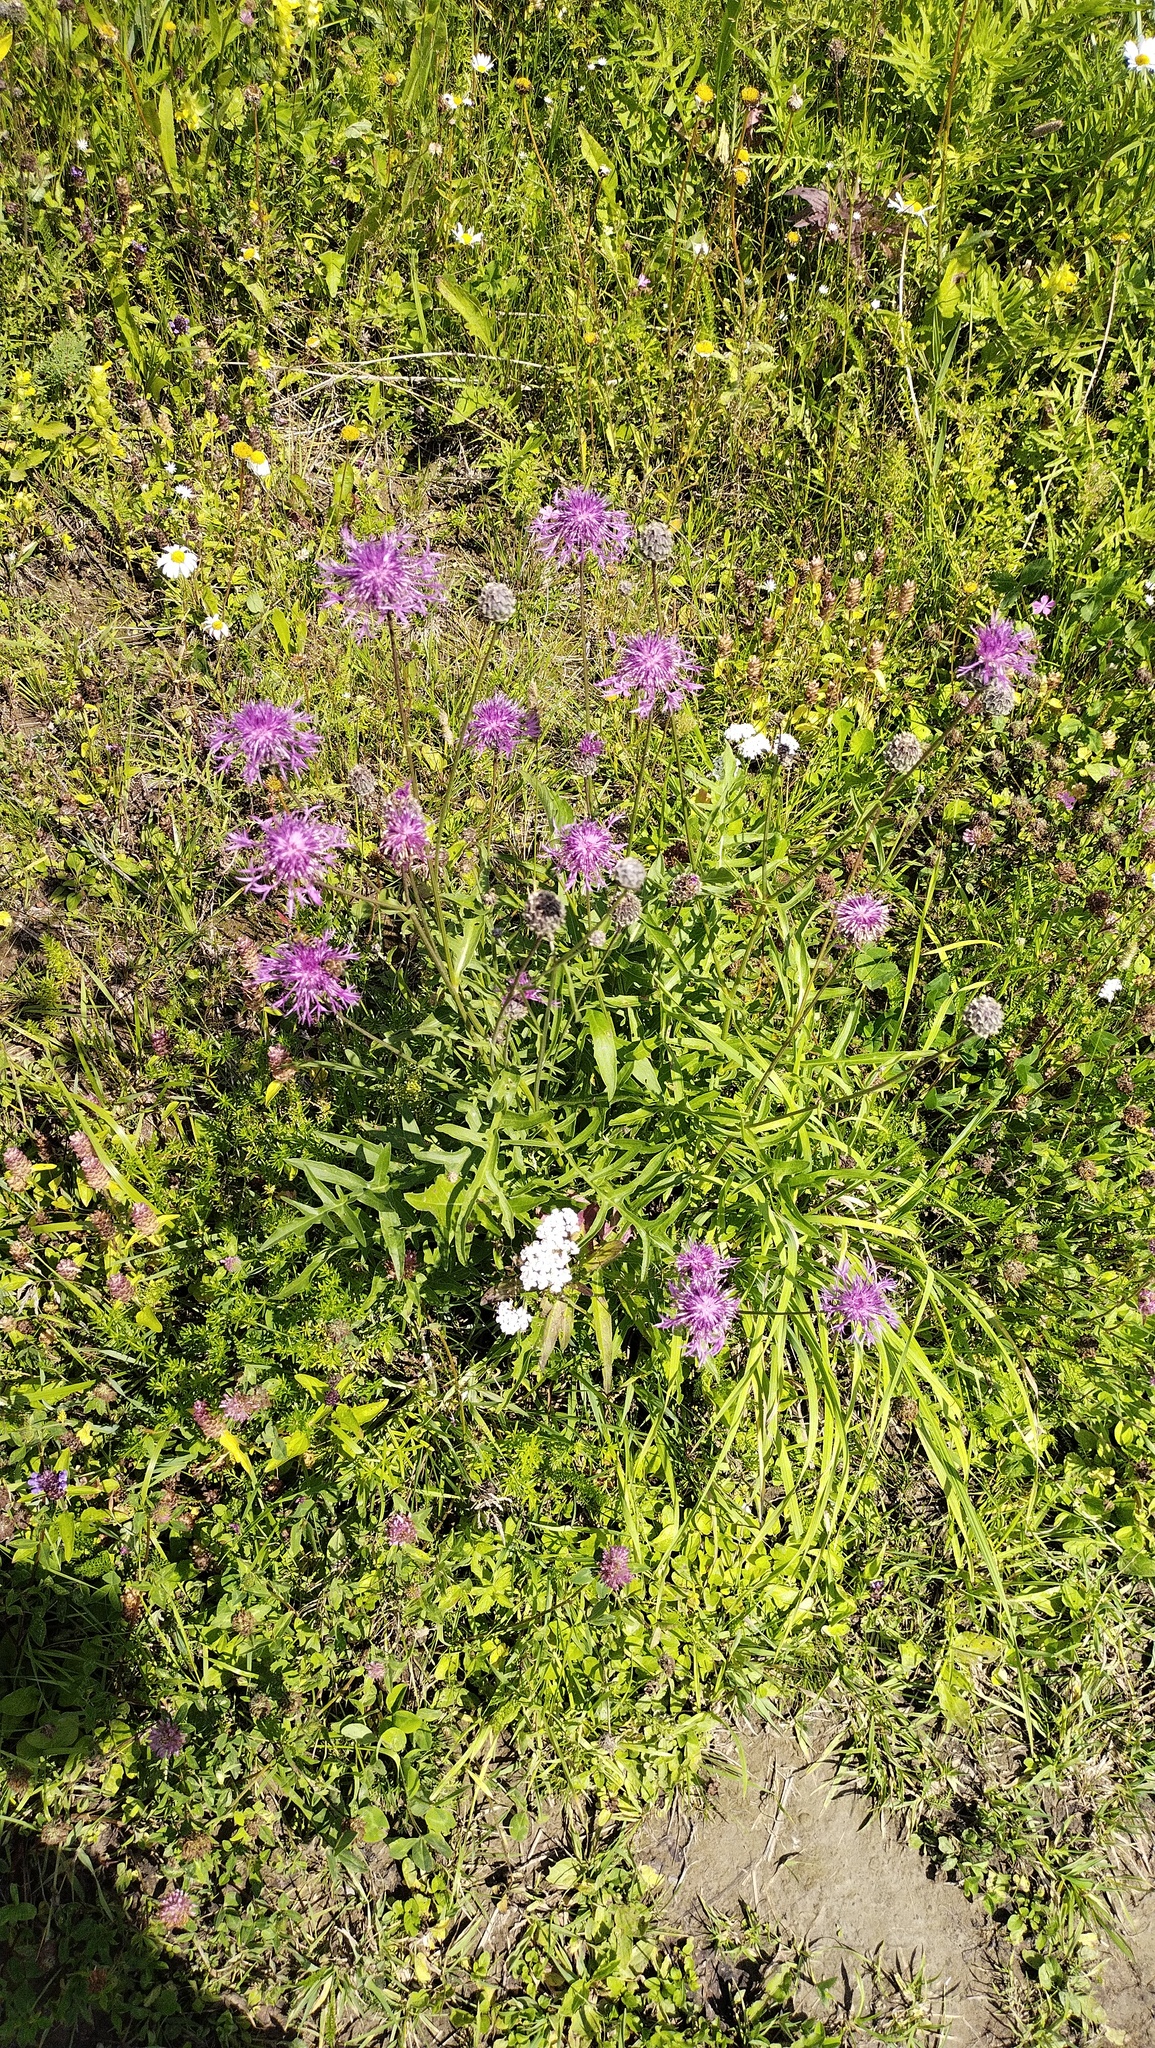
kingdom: Plantae
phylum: Tracheophyta
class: Magnoliopsida
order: Asterales
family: Asteraceae
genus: Centaurea
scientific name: Centaurea scabiosa
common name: Greater knapweed
